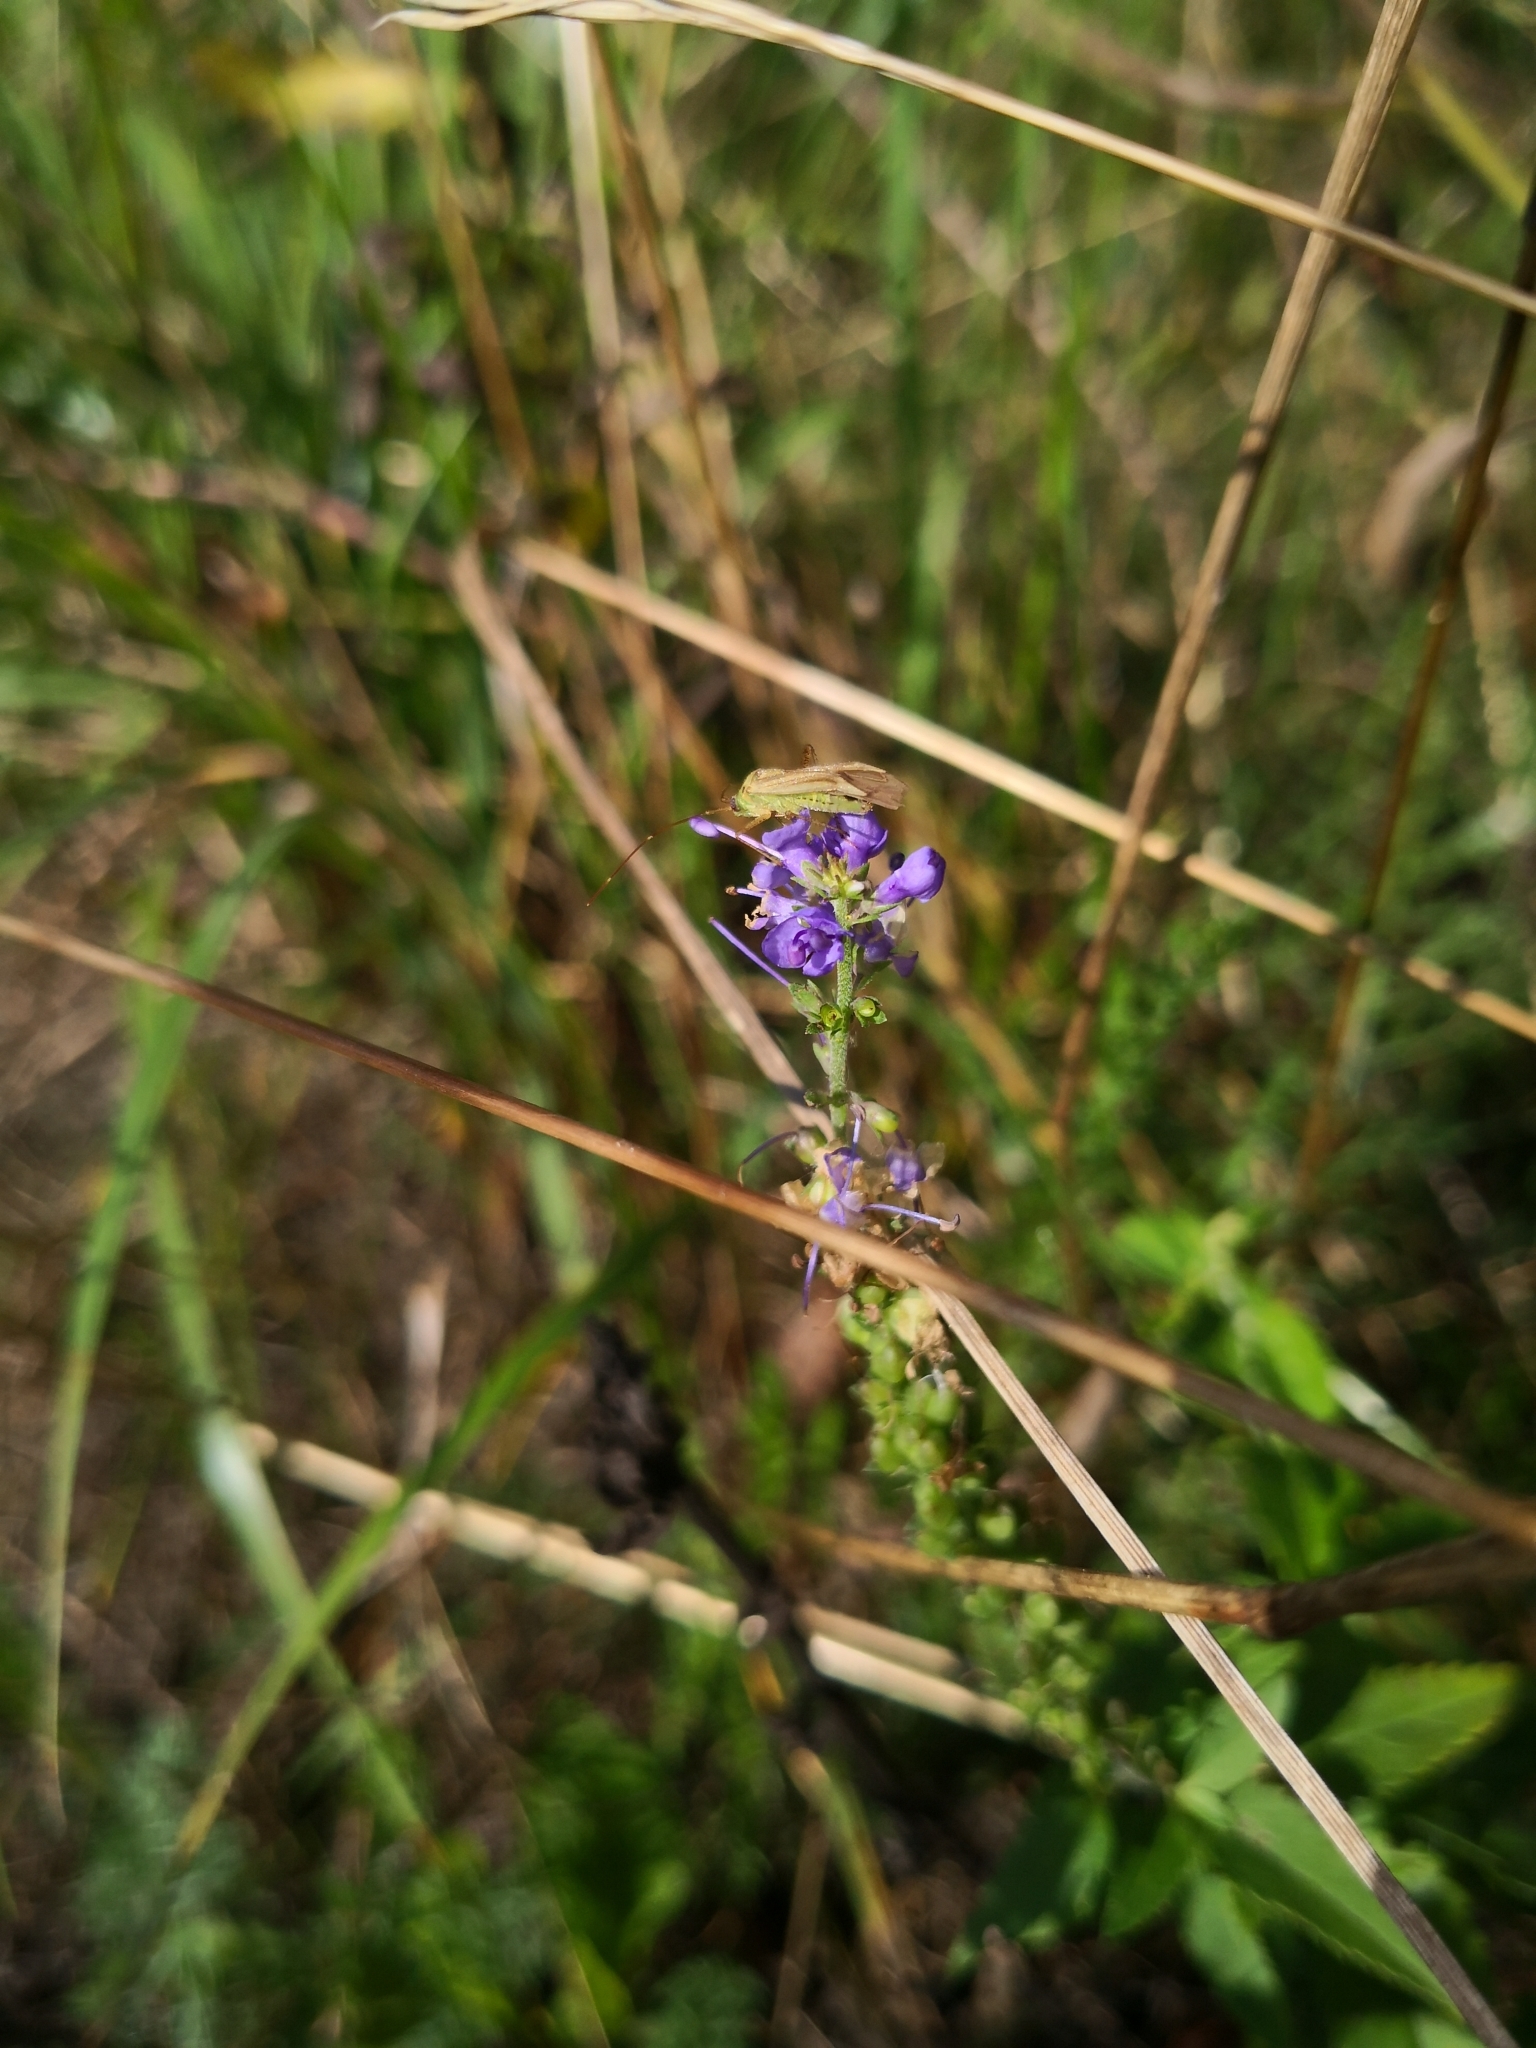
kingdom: Plantae
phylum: Tracheophyta
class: Magnoliopsida
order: Lamiales
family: Plantaginaceae
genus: Veronica
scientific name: Veronica longifolia
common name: Garden speedwell
